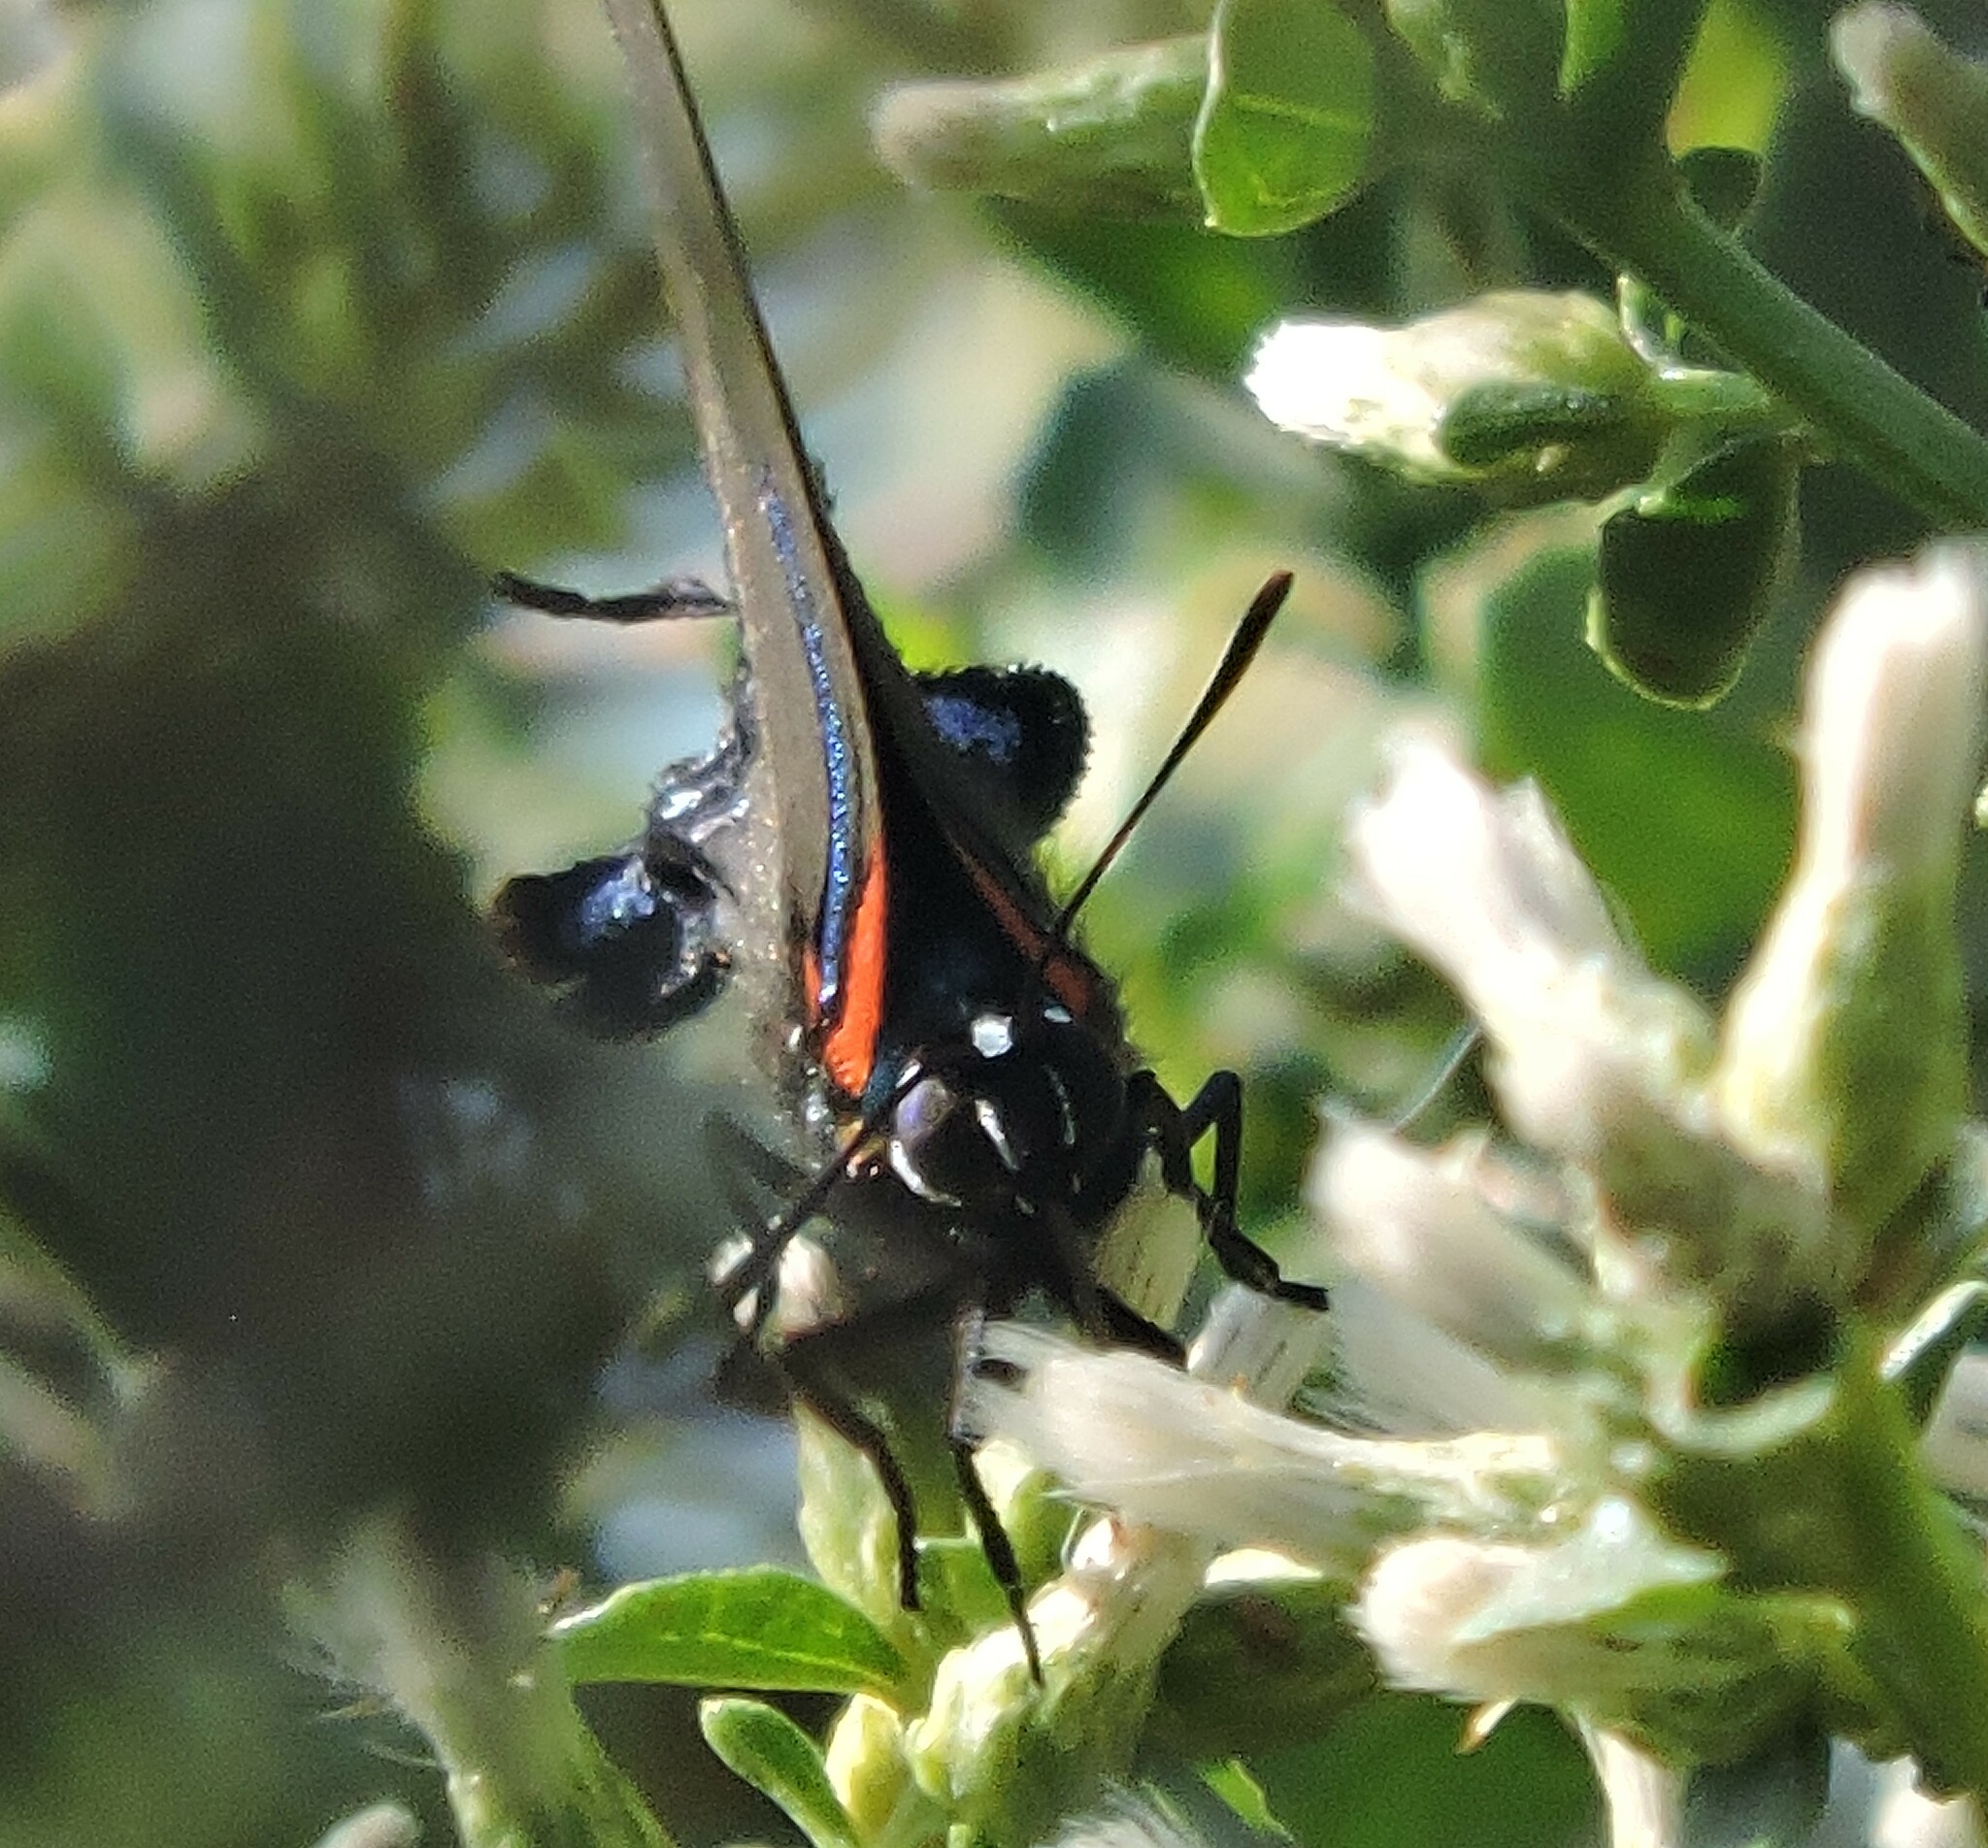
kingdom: Animalia
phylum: Arthropoda
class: Insecta
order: Lepidoptera
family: Lycaenidae
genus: Atlides
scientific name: Atlides halesus
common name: Great purple hairstreak
